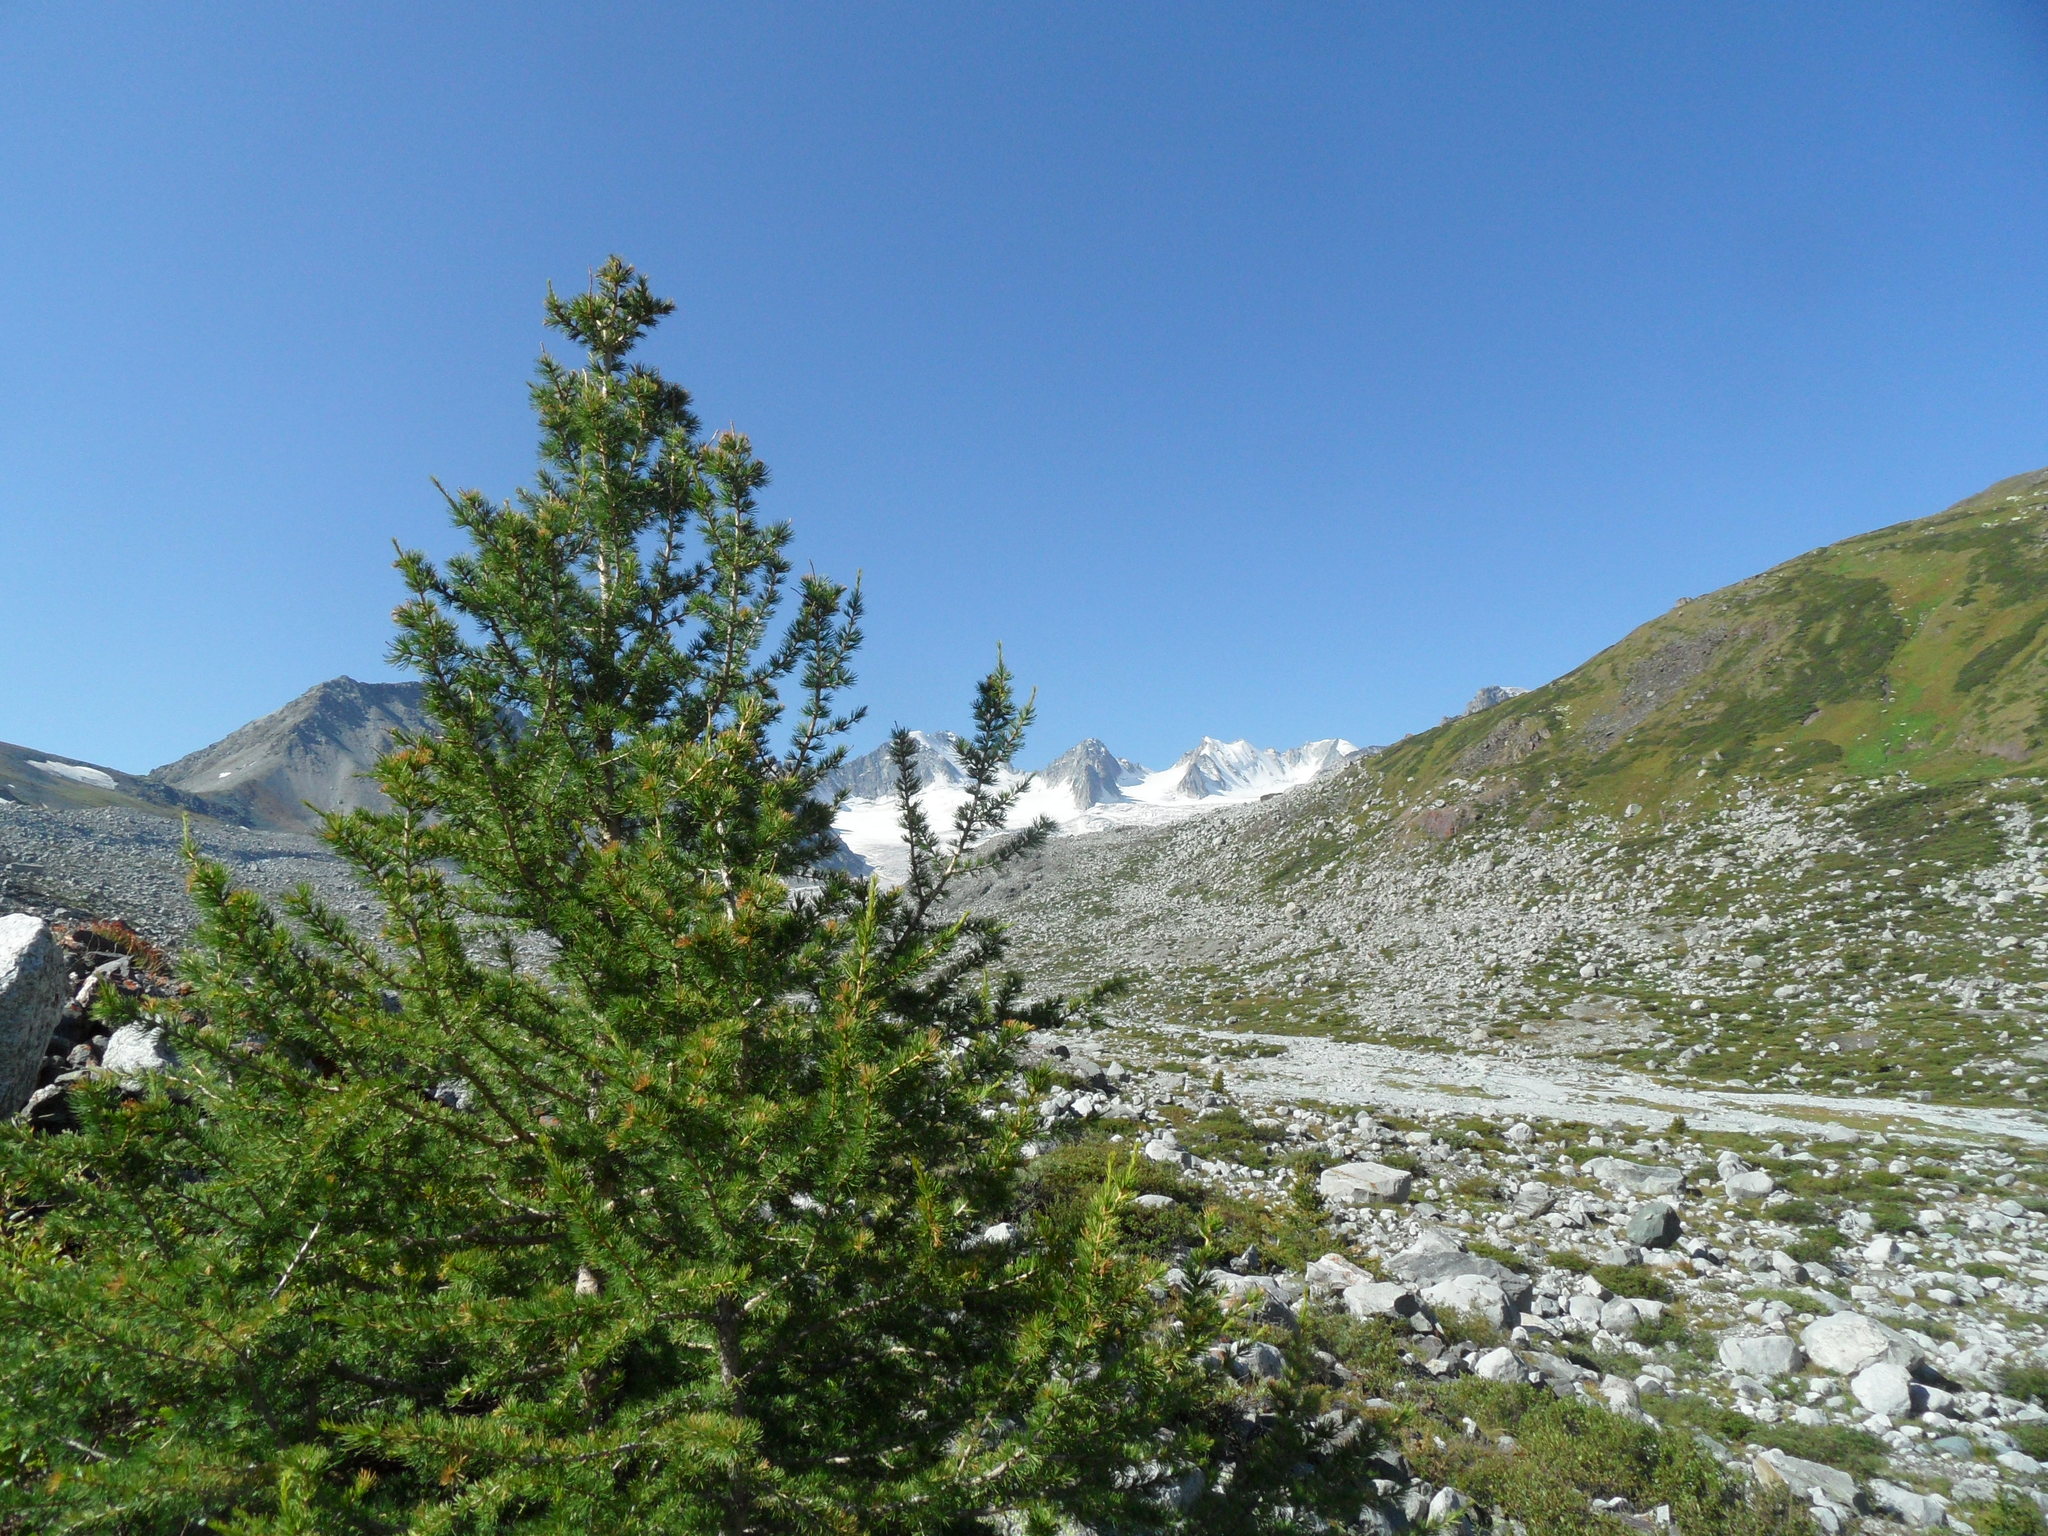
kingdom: Plantae
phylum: Tracheophyta
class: Pinopsida
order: Pinales
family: Pinaceae
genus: Larix
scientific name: Larix sibirica
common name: Siberian larch
